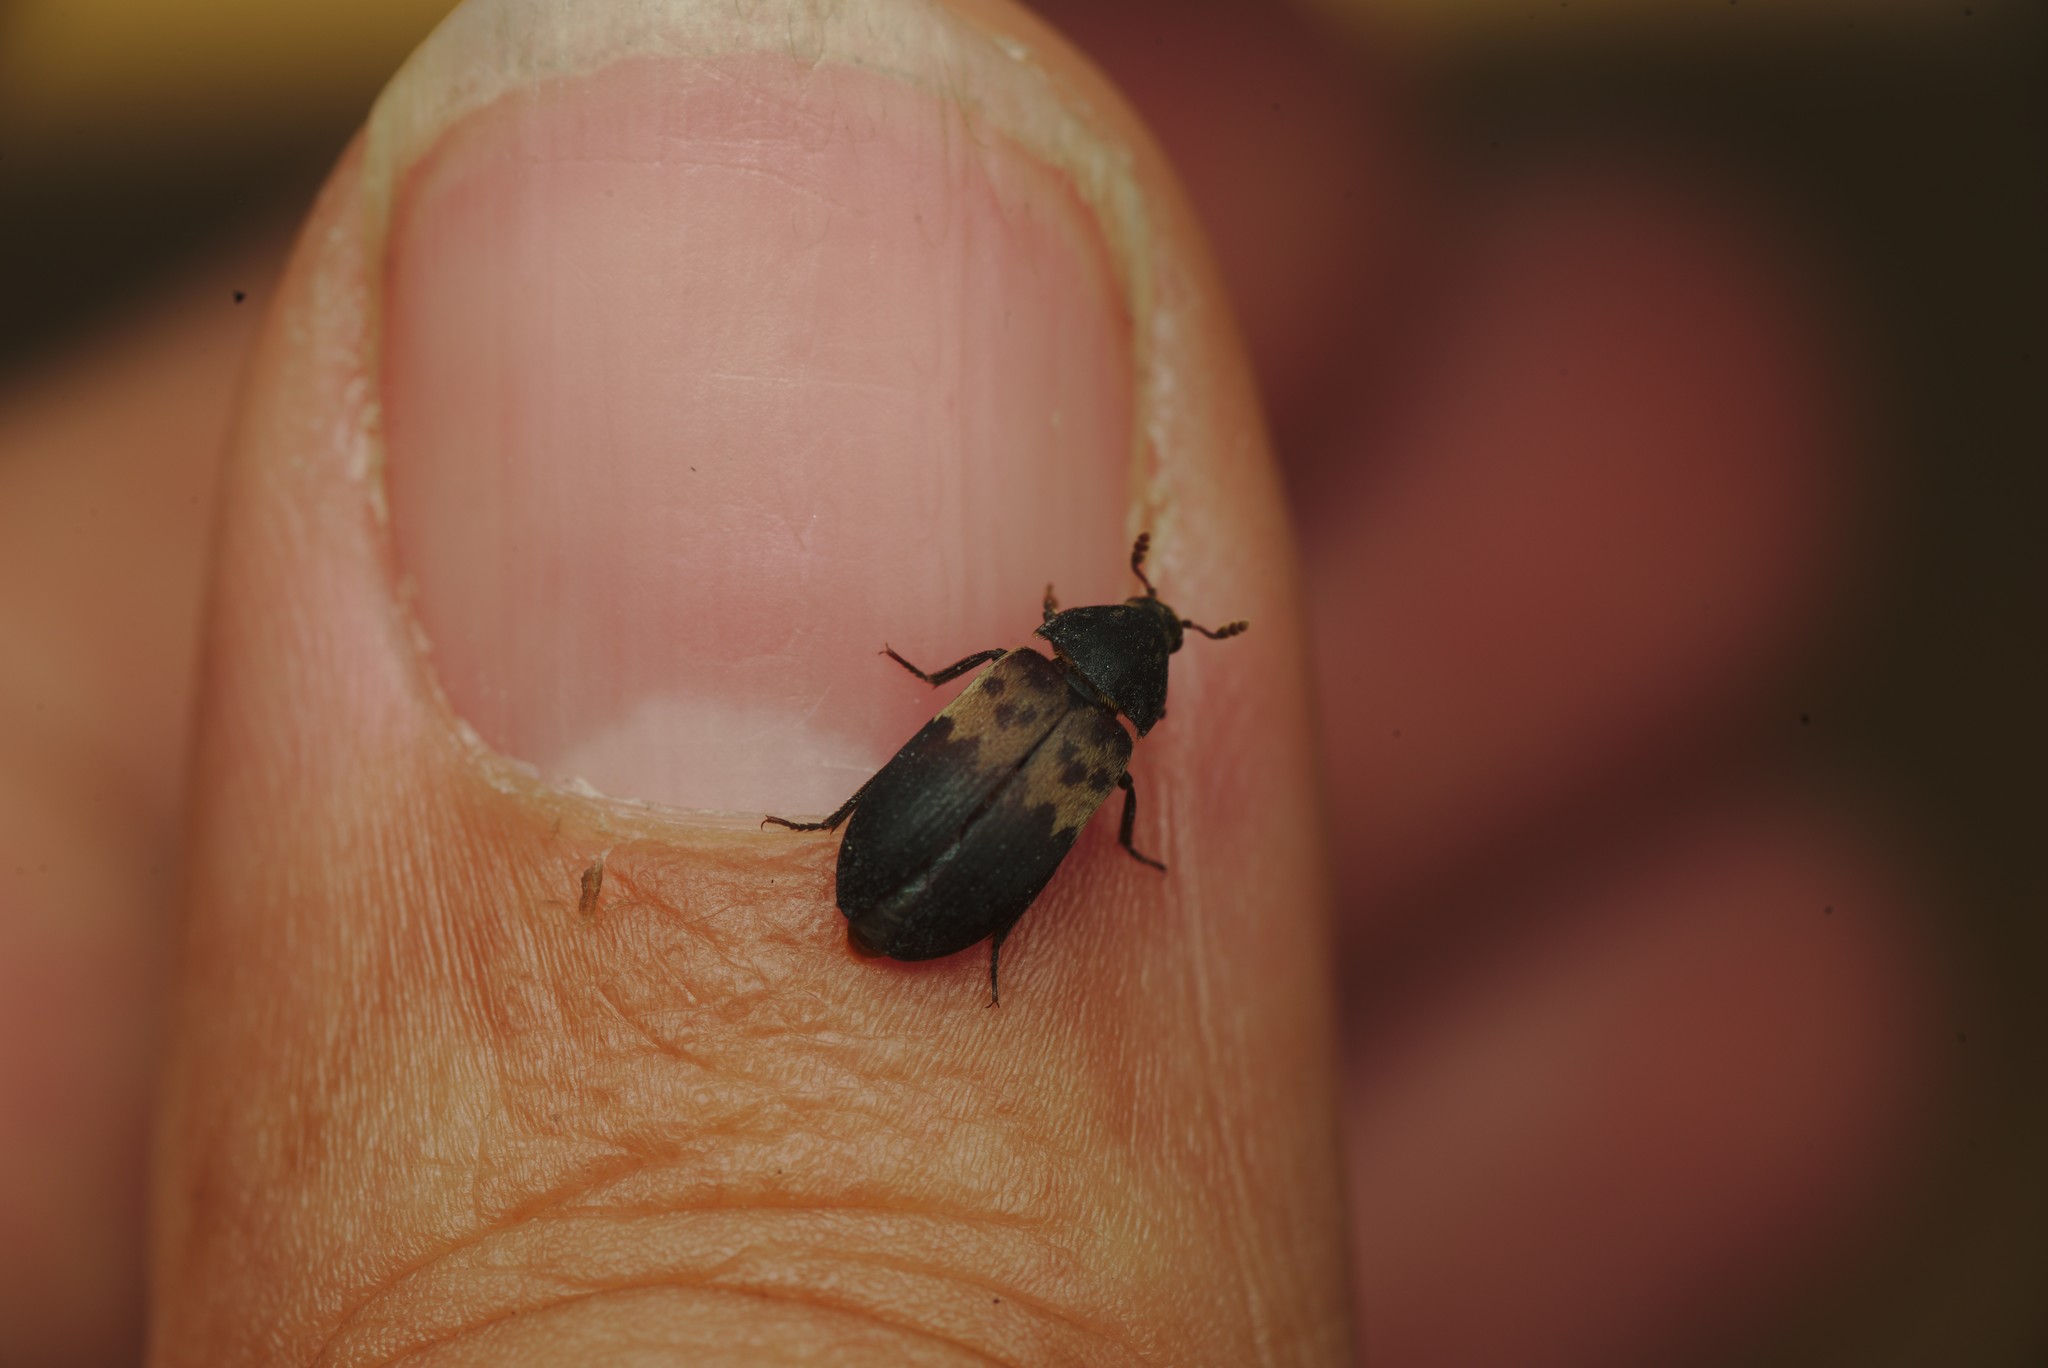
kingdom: Animalia
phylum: Arthropoda
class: Insecta
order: Coleoptera
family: Dermestidae
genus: Dermestes
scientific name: Dermestes lardarius
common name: Larder beetle
